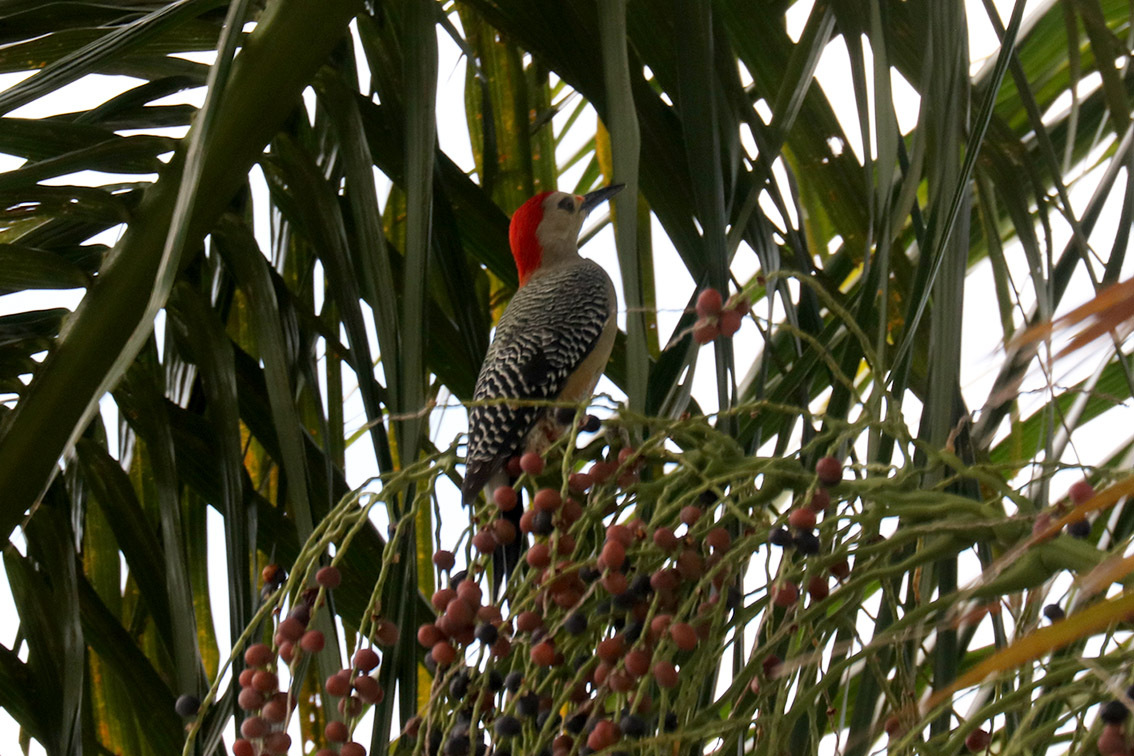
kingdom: Animalia
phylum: Chordata
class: Aves
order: Piciformes
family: Picidae
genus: Melanerpes
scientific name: Melanerpes aurifrons
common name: Golden-fronted woodpecker
